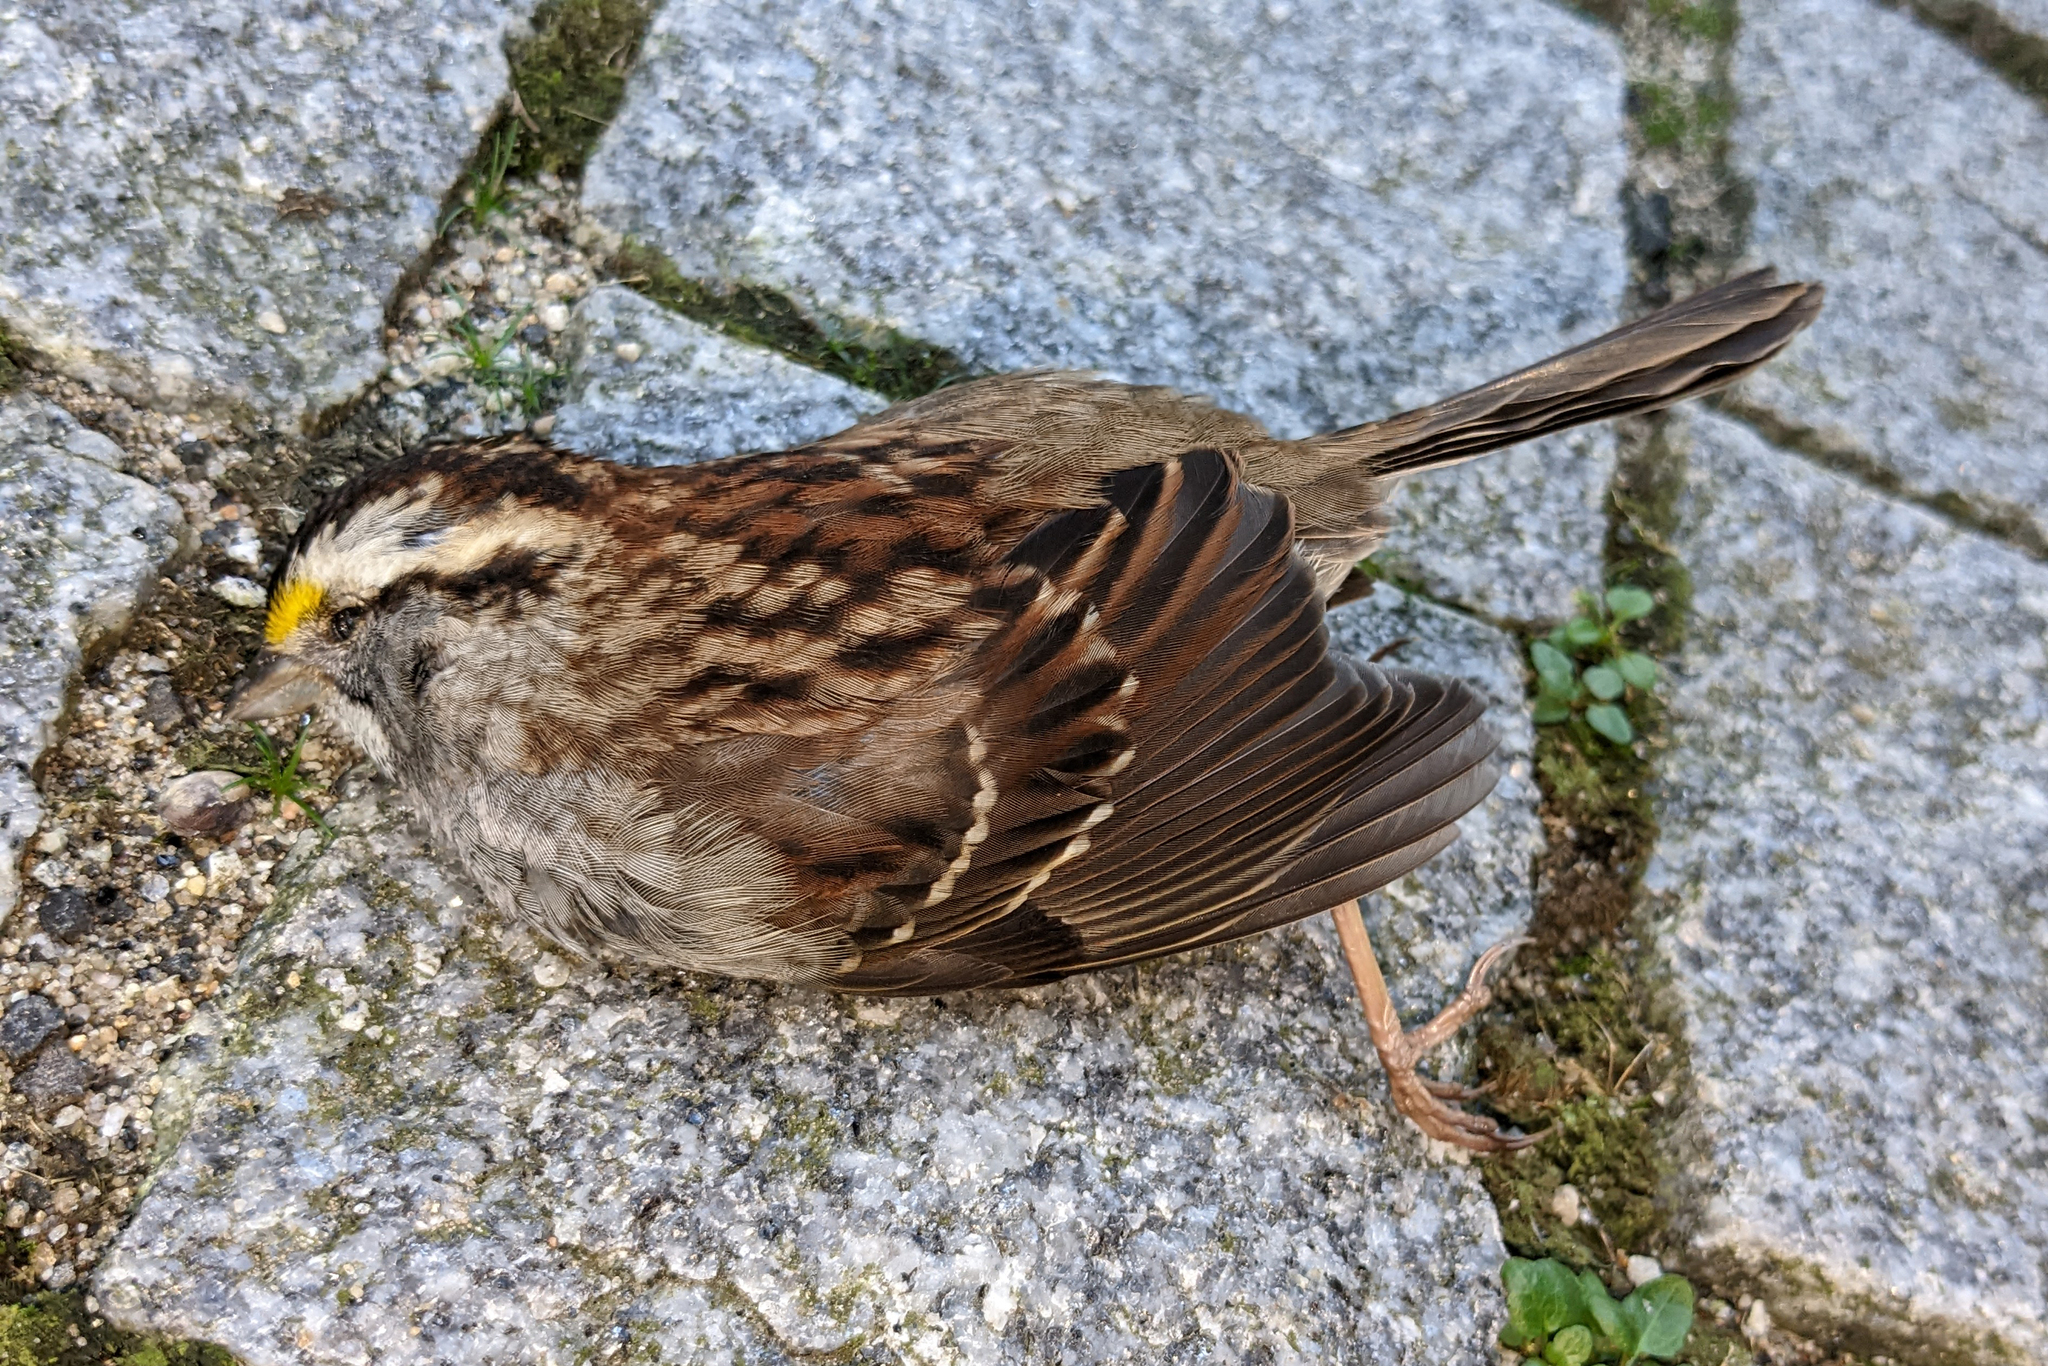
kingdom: Animalia
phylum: Chordata
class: Aves
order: Passeriformes
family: Passerellidae
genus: Zonotrichia
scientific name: Zonotrichia albicollis
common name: White-throated sparrow
